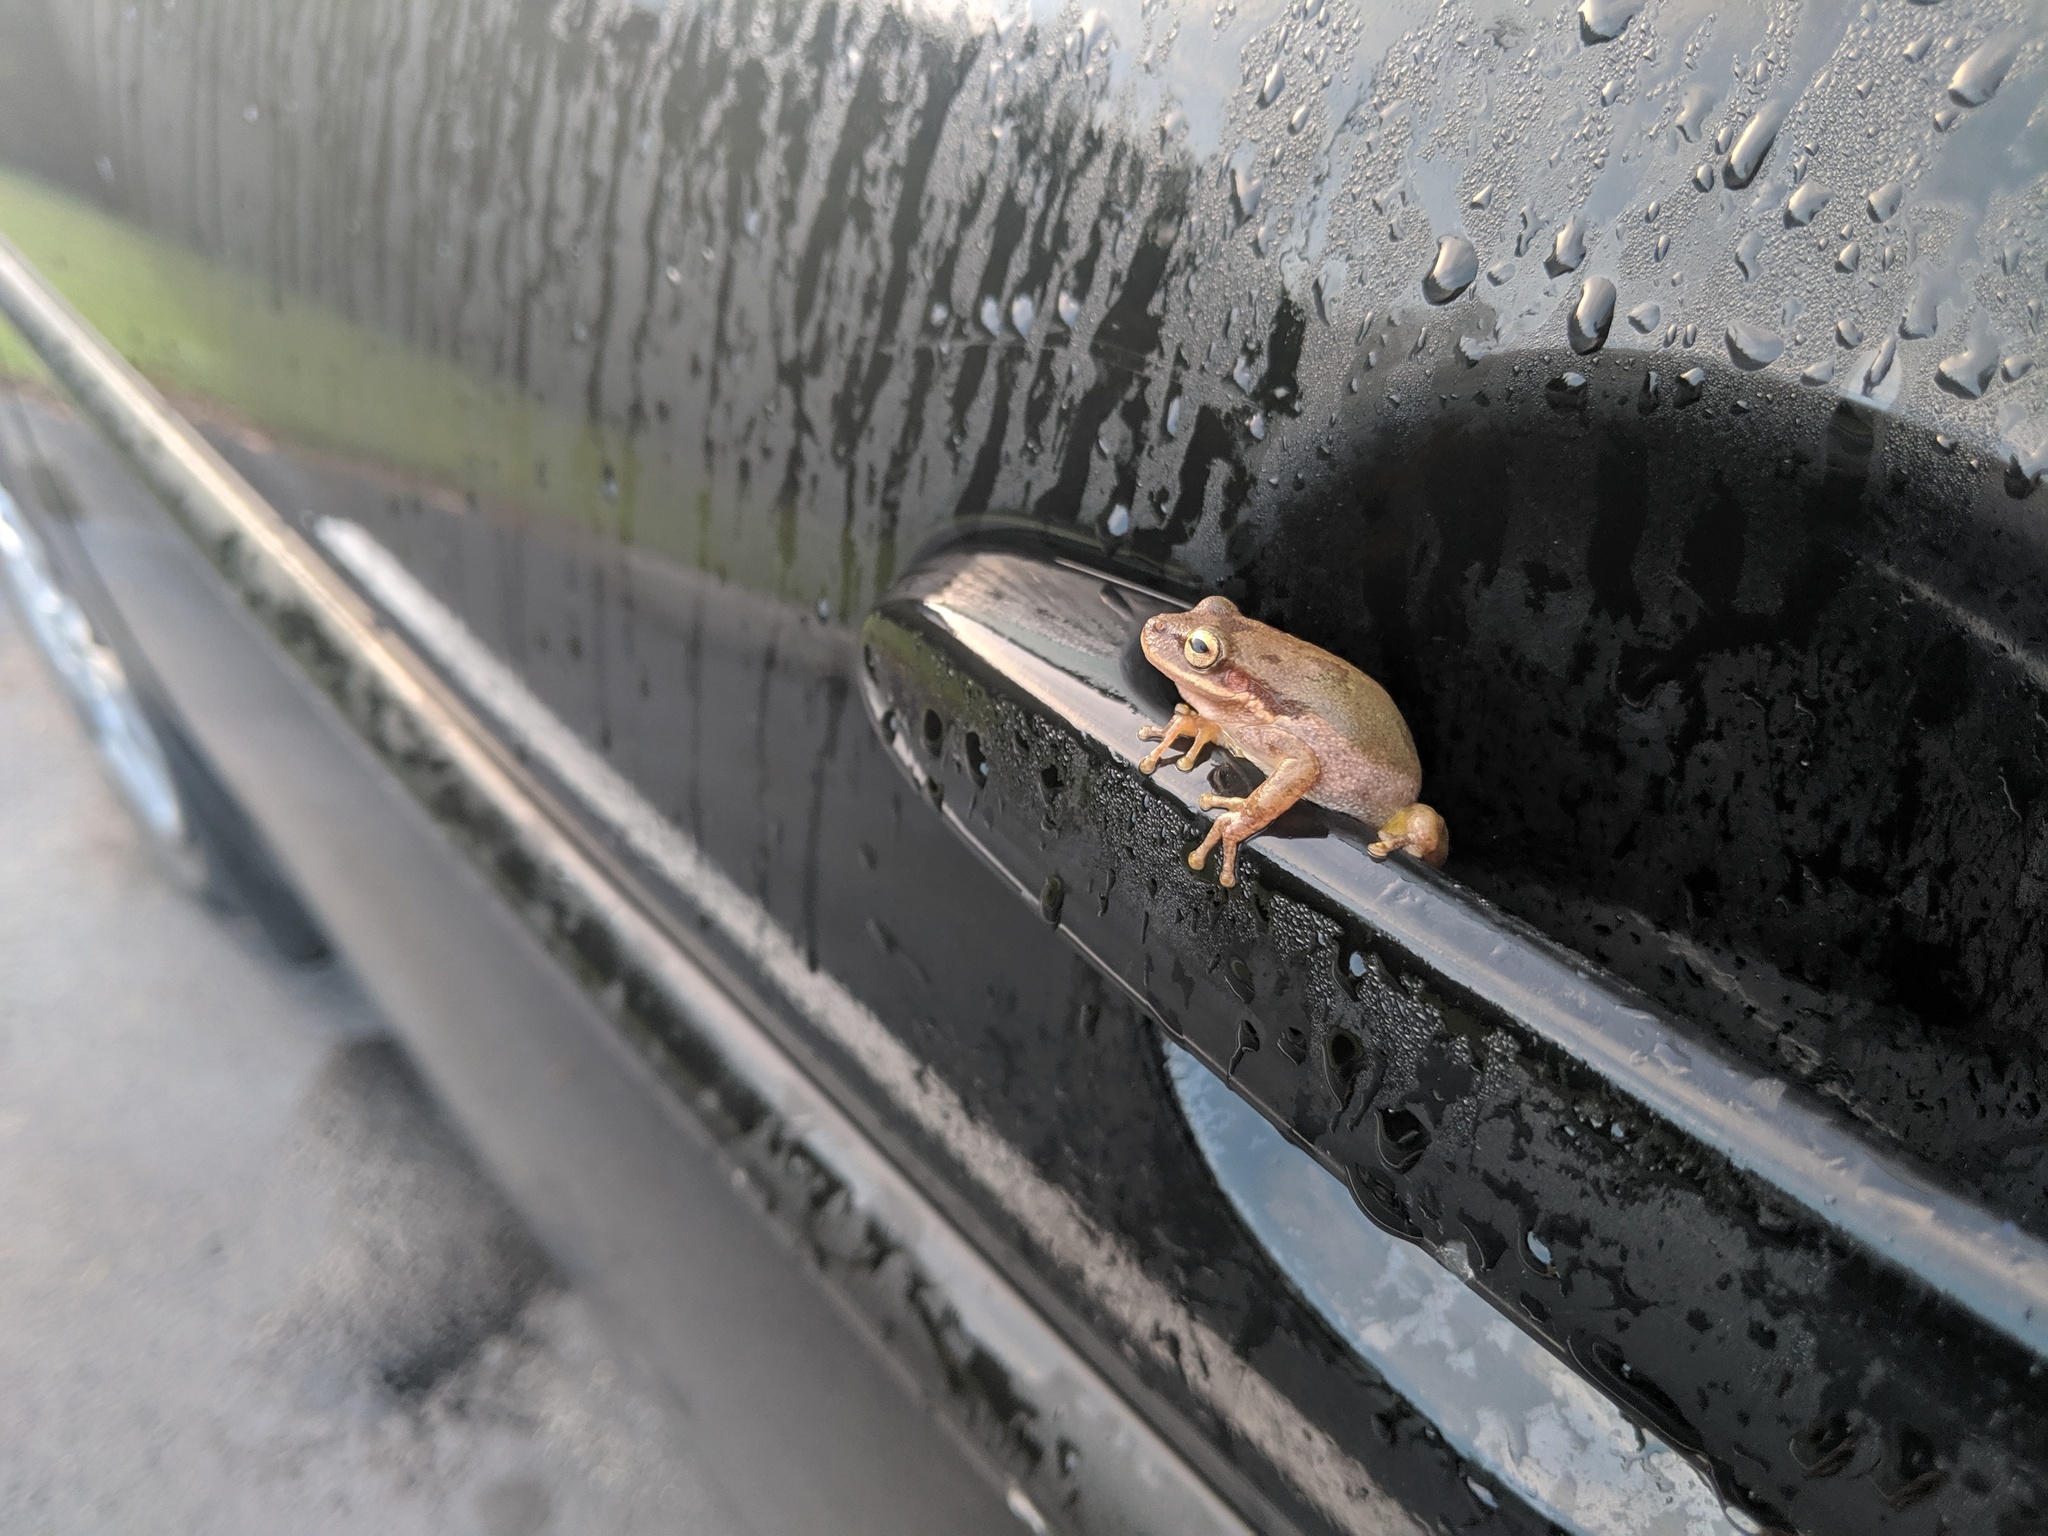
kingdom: Animalia
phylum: Chordata
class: Amphibia
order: Anura
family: Hylidae
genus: Dryophytes
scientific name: Dryophytes squirellus
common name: Squirrel treefrog
